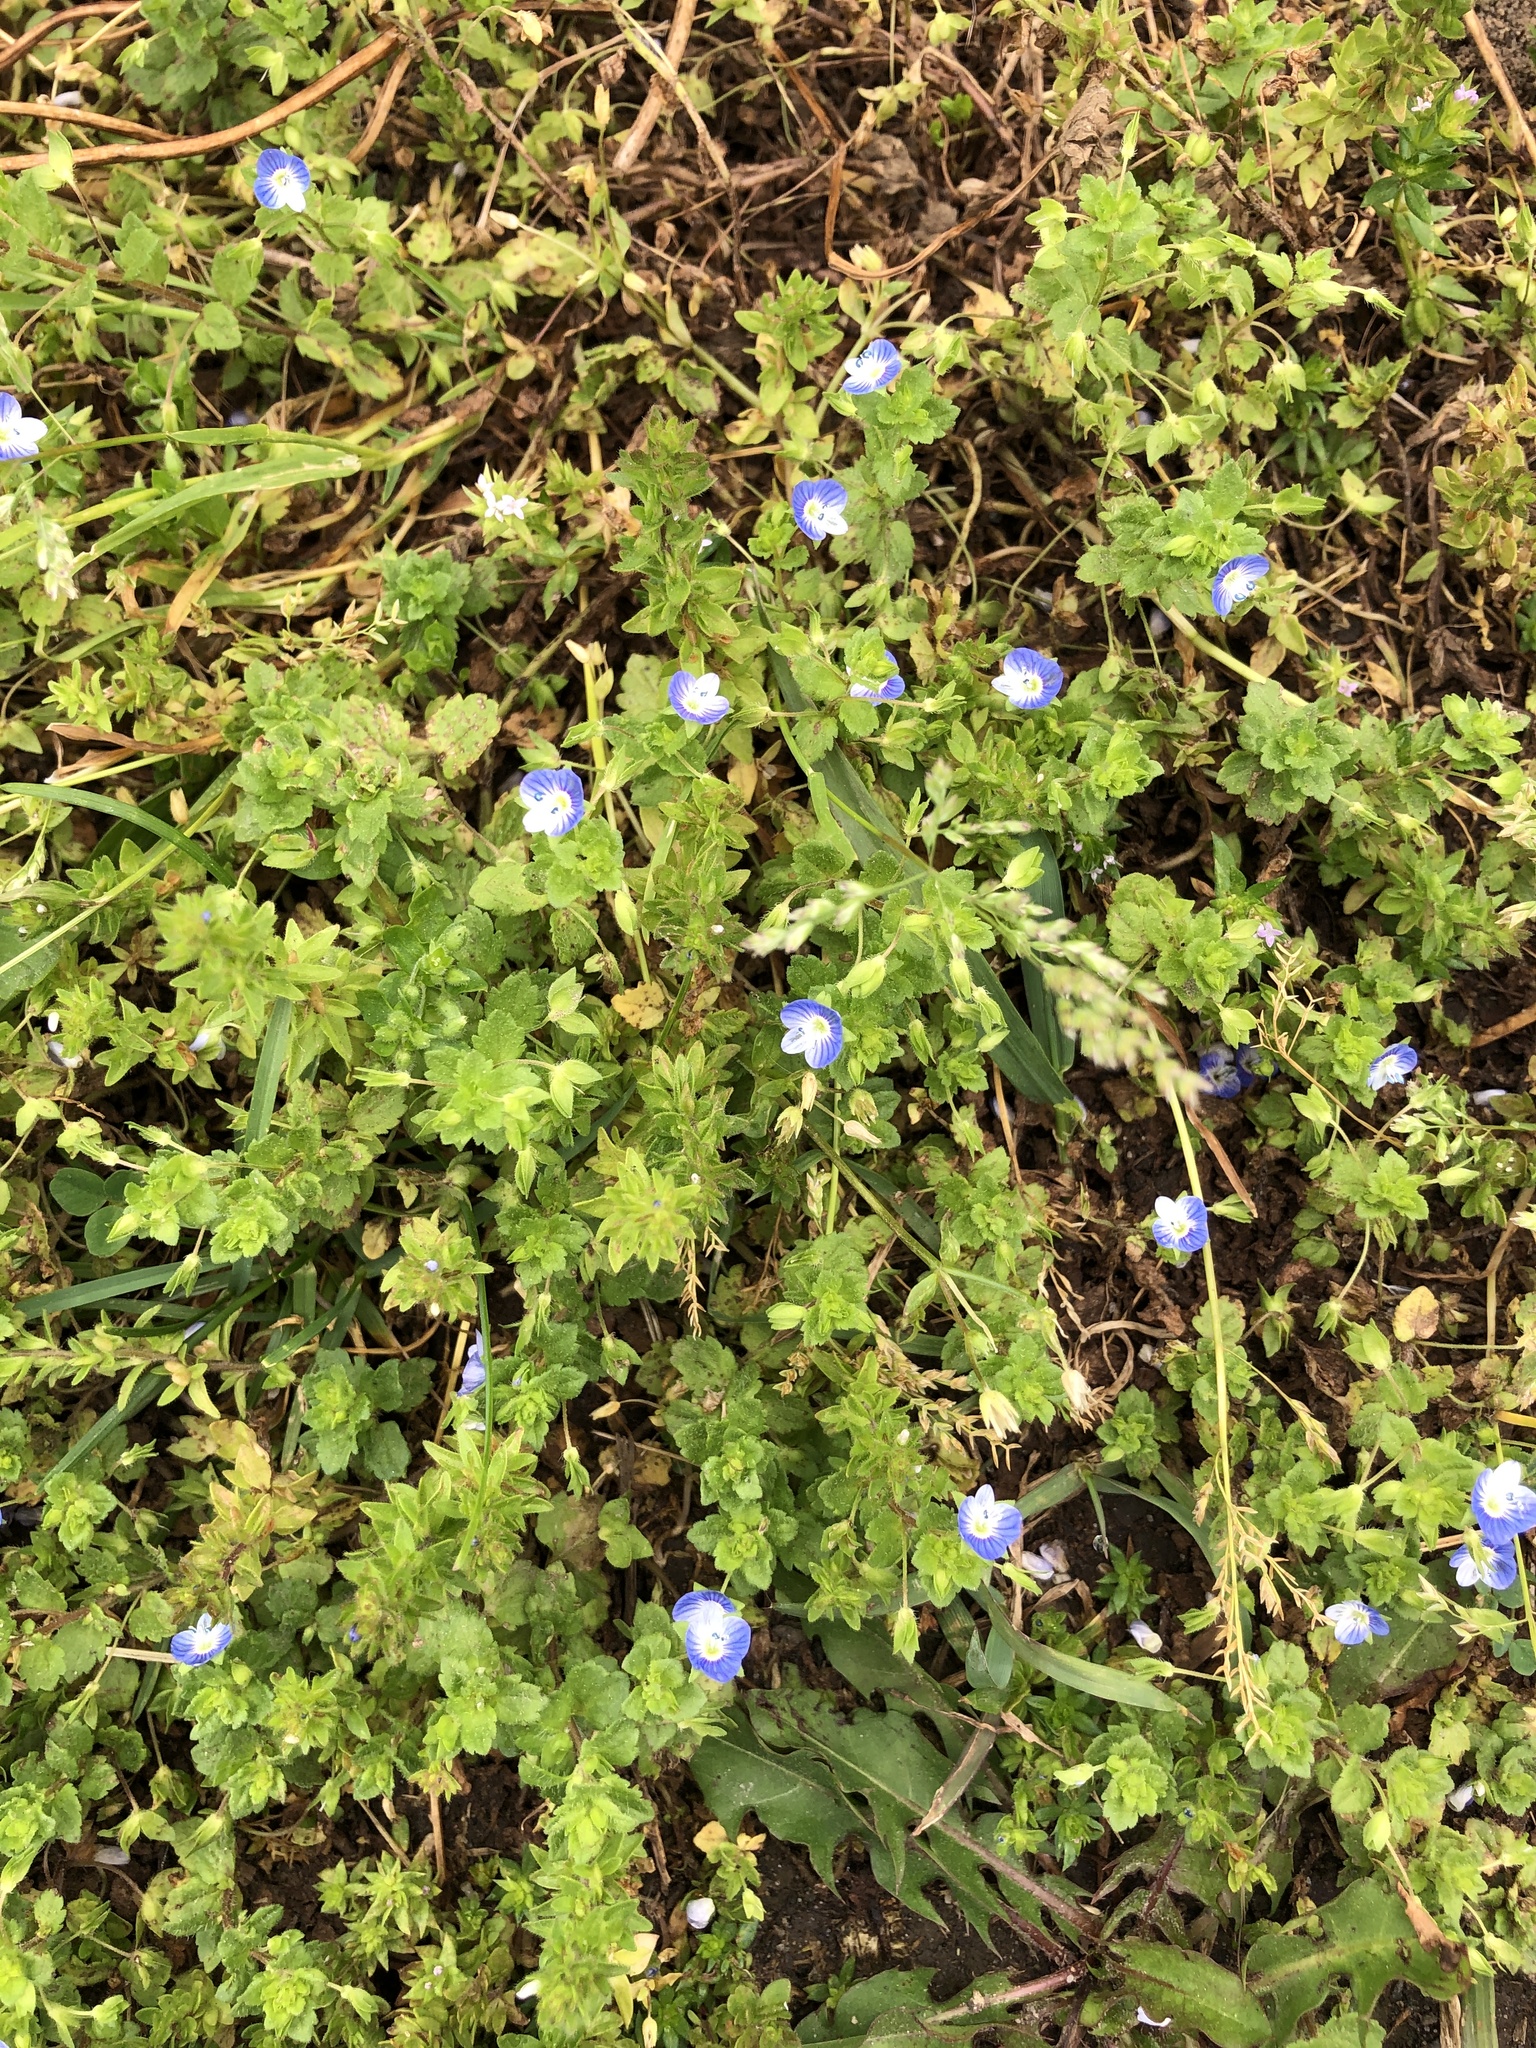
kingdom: Plantae
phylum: Tracheophyta
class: Magnoliopsida
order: Lamiales
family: Plantaginaceae
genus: Veronica
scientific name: Veronica persica
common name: Common field-speedwell
